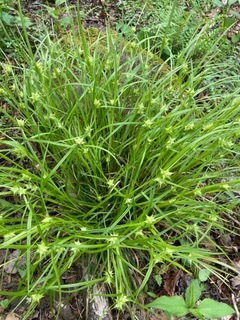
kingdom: Plantae
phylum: Tracheophyta
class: Liliopsida
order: Poales
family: Cyperaceae
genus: Carex
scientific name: Carex intumescens
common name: Greater bladder sedge
